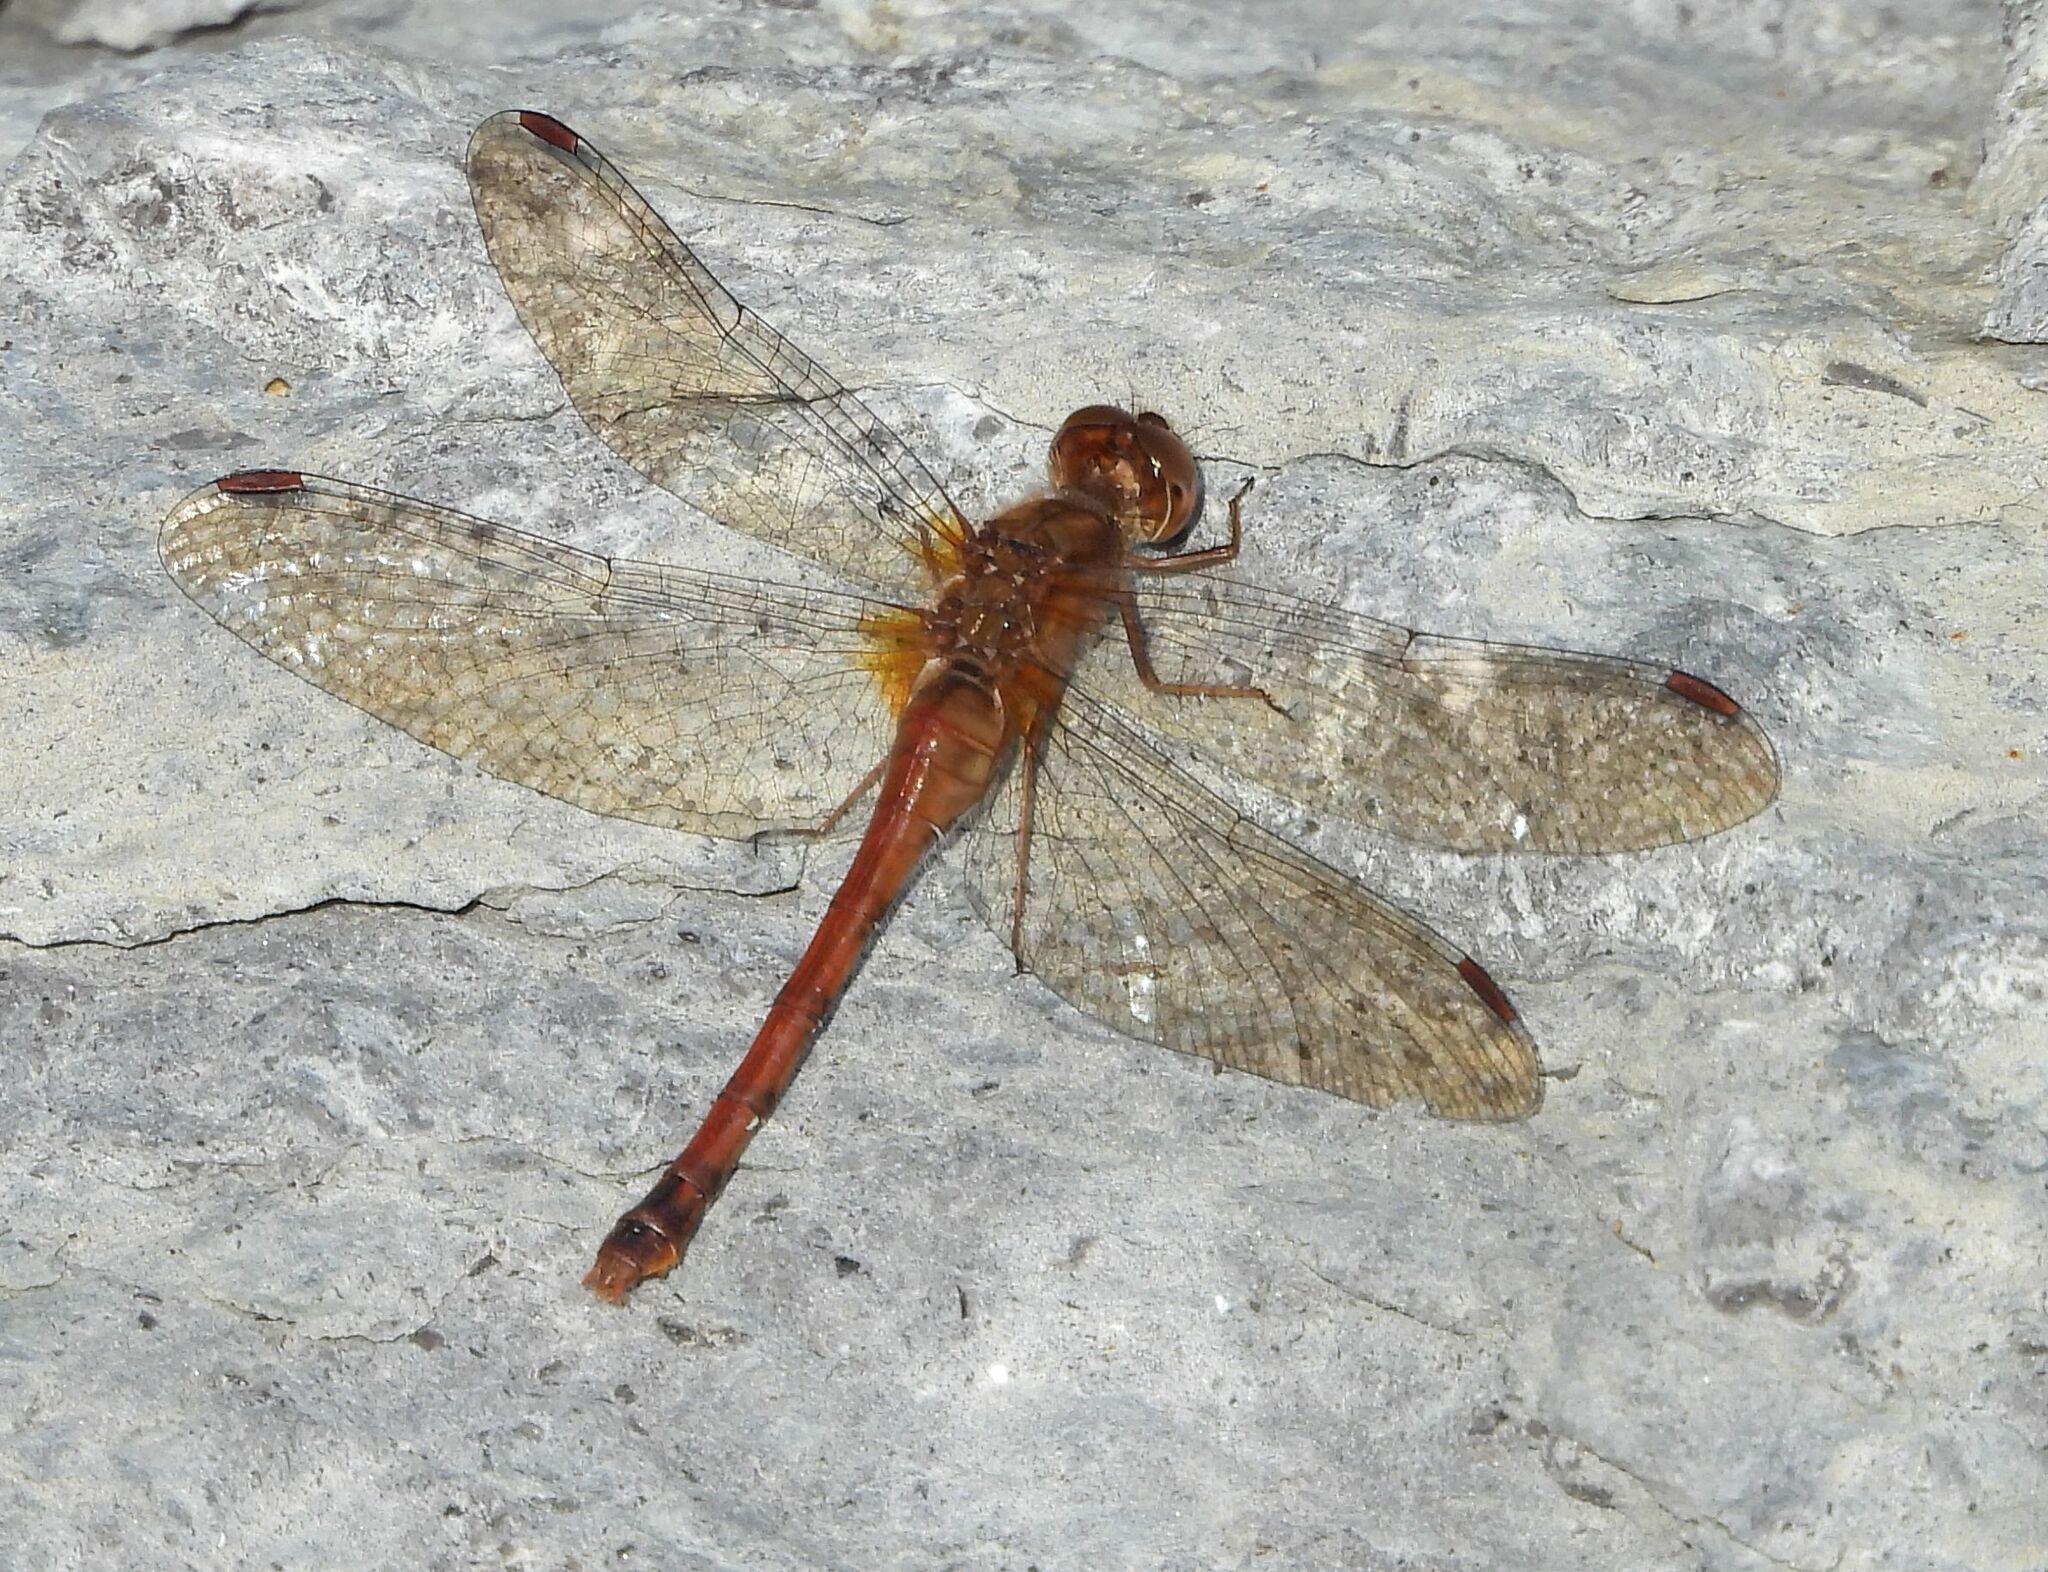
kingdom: Animalia
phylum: Arthropoda
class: Insecta
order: Odonata
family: Libellulidae
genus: Sympetrum
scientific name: Sympetrum vicinum
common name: Autumn meadowhawk
